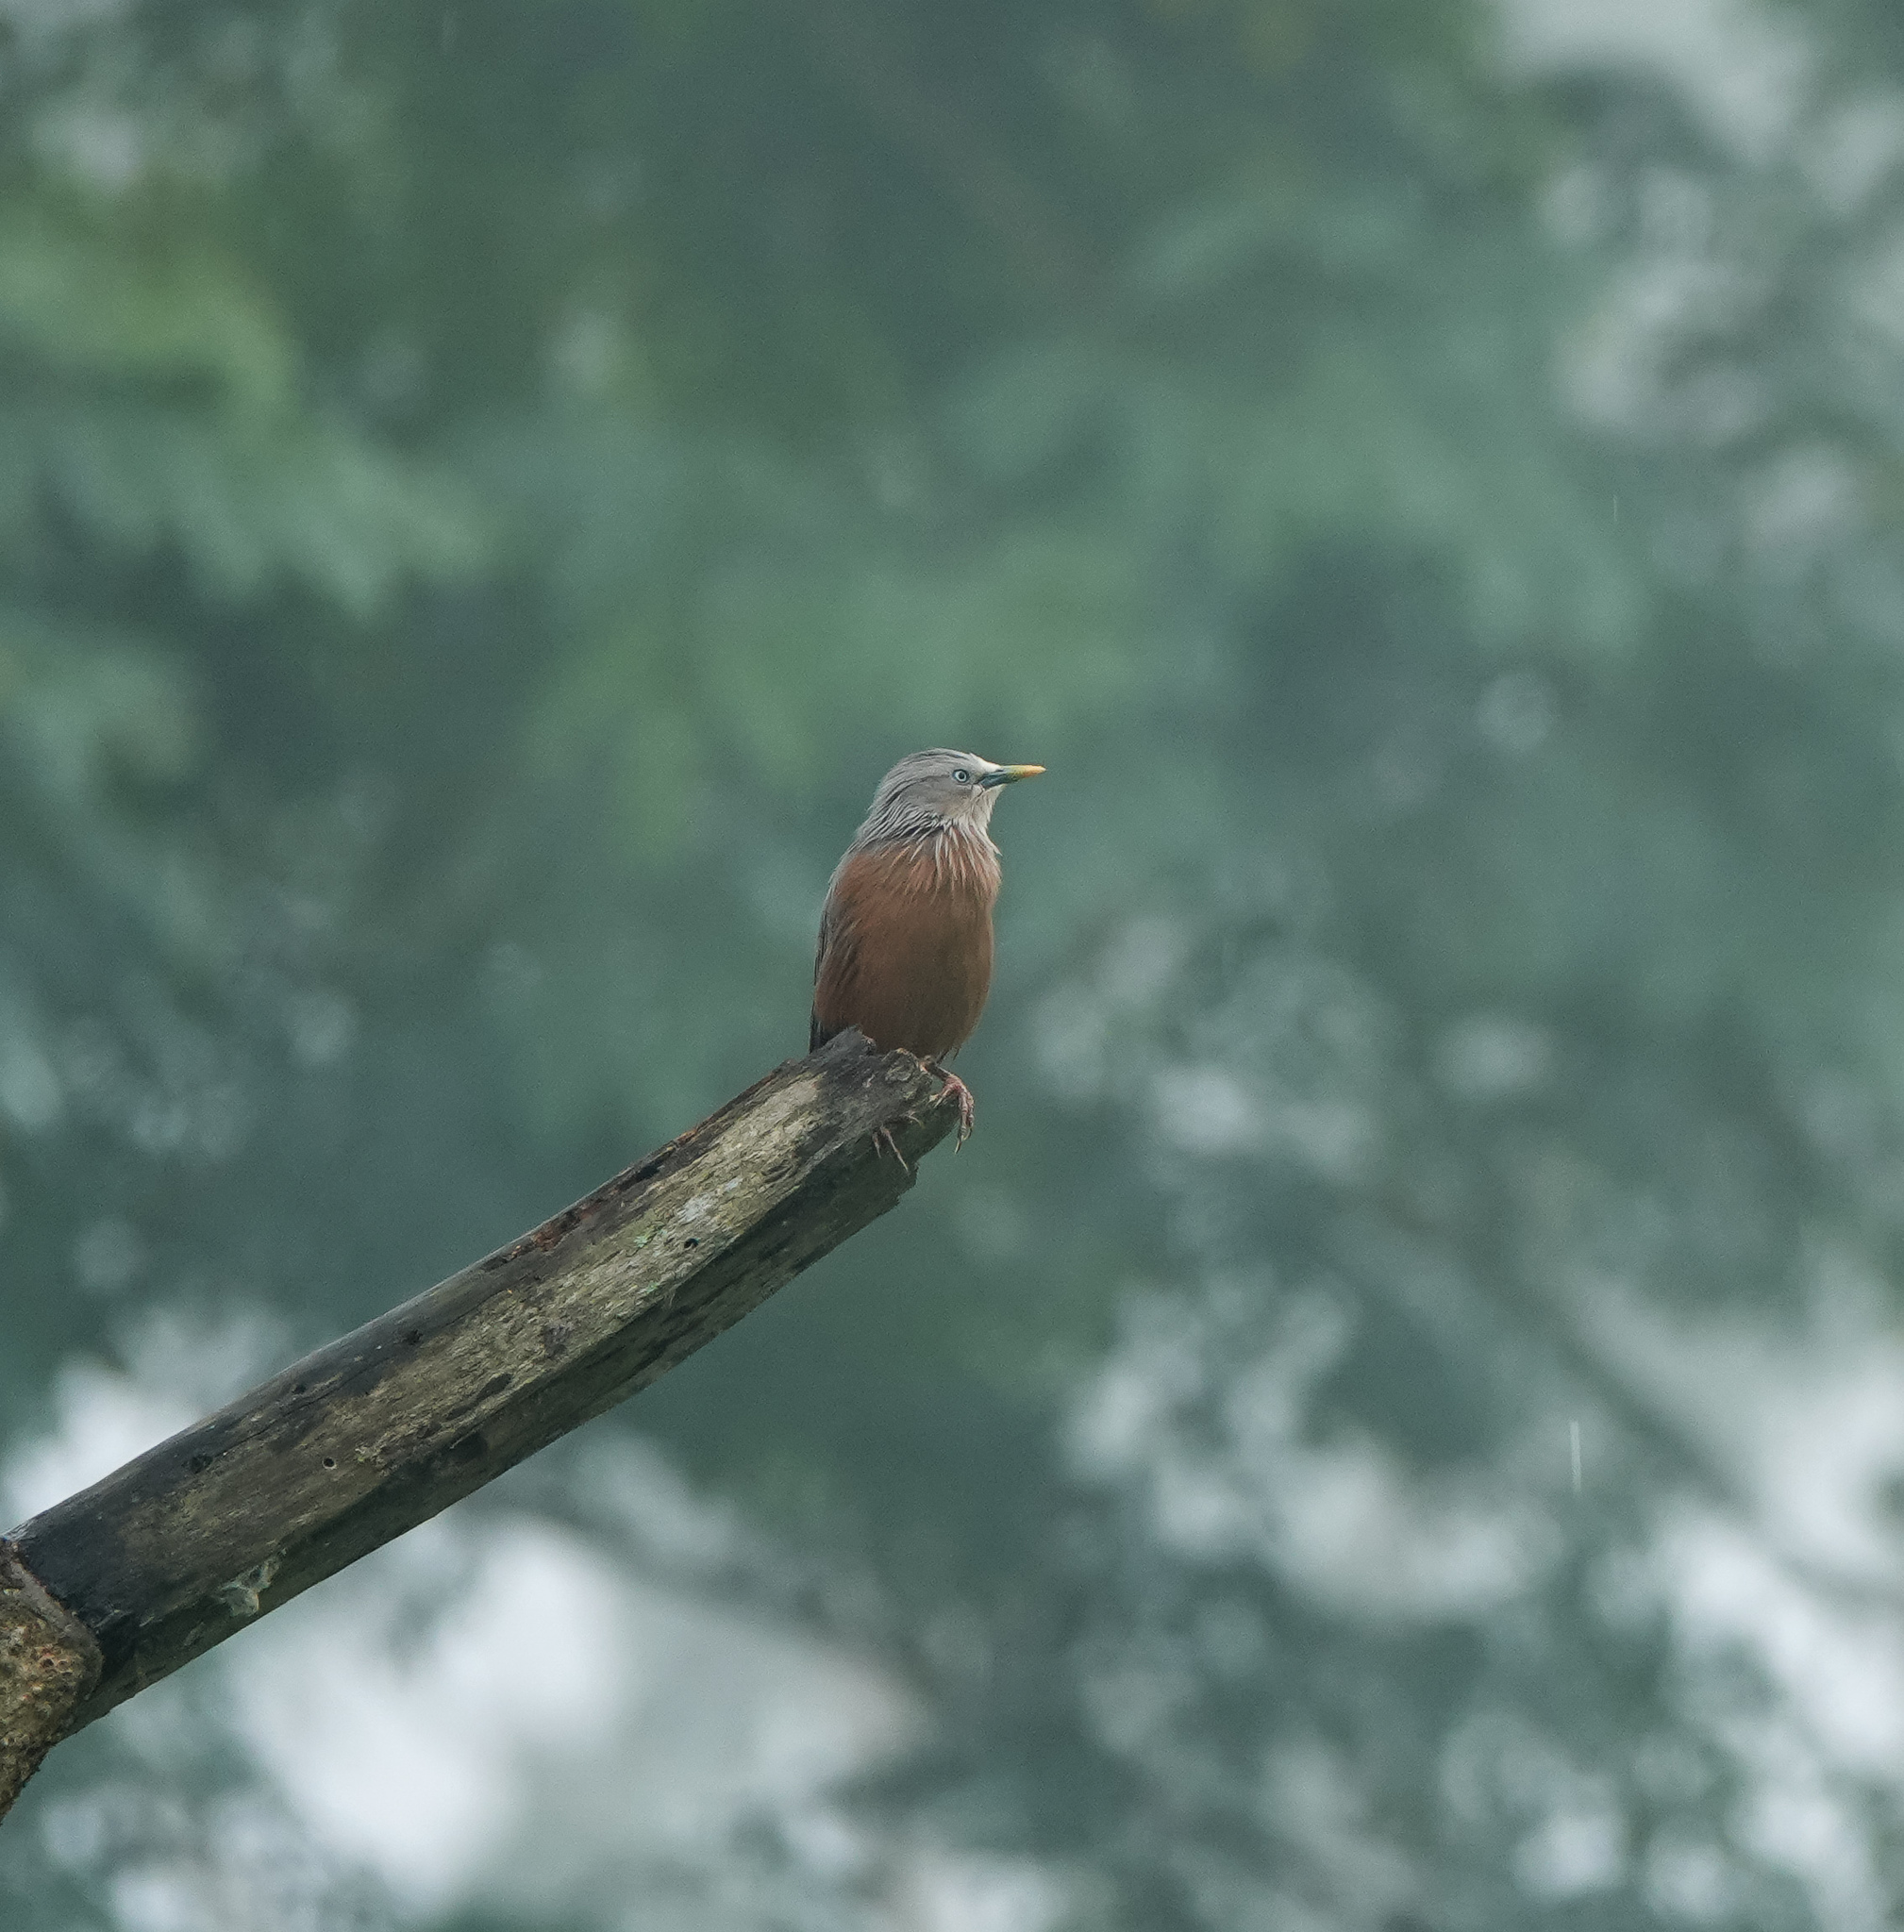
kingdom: Animalia
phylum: Chordata
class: Aves
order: Passeriformes
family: Sturnidae
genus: Sturnia
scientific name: Sturnia malabarica
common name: Chestnut-tailed starling
